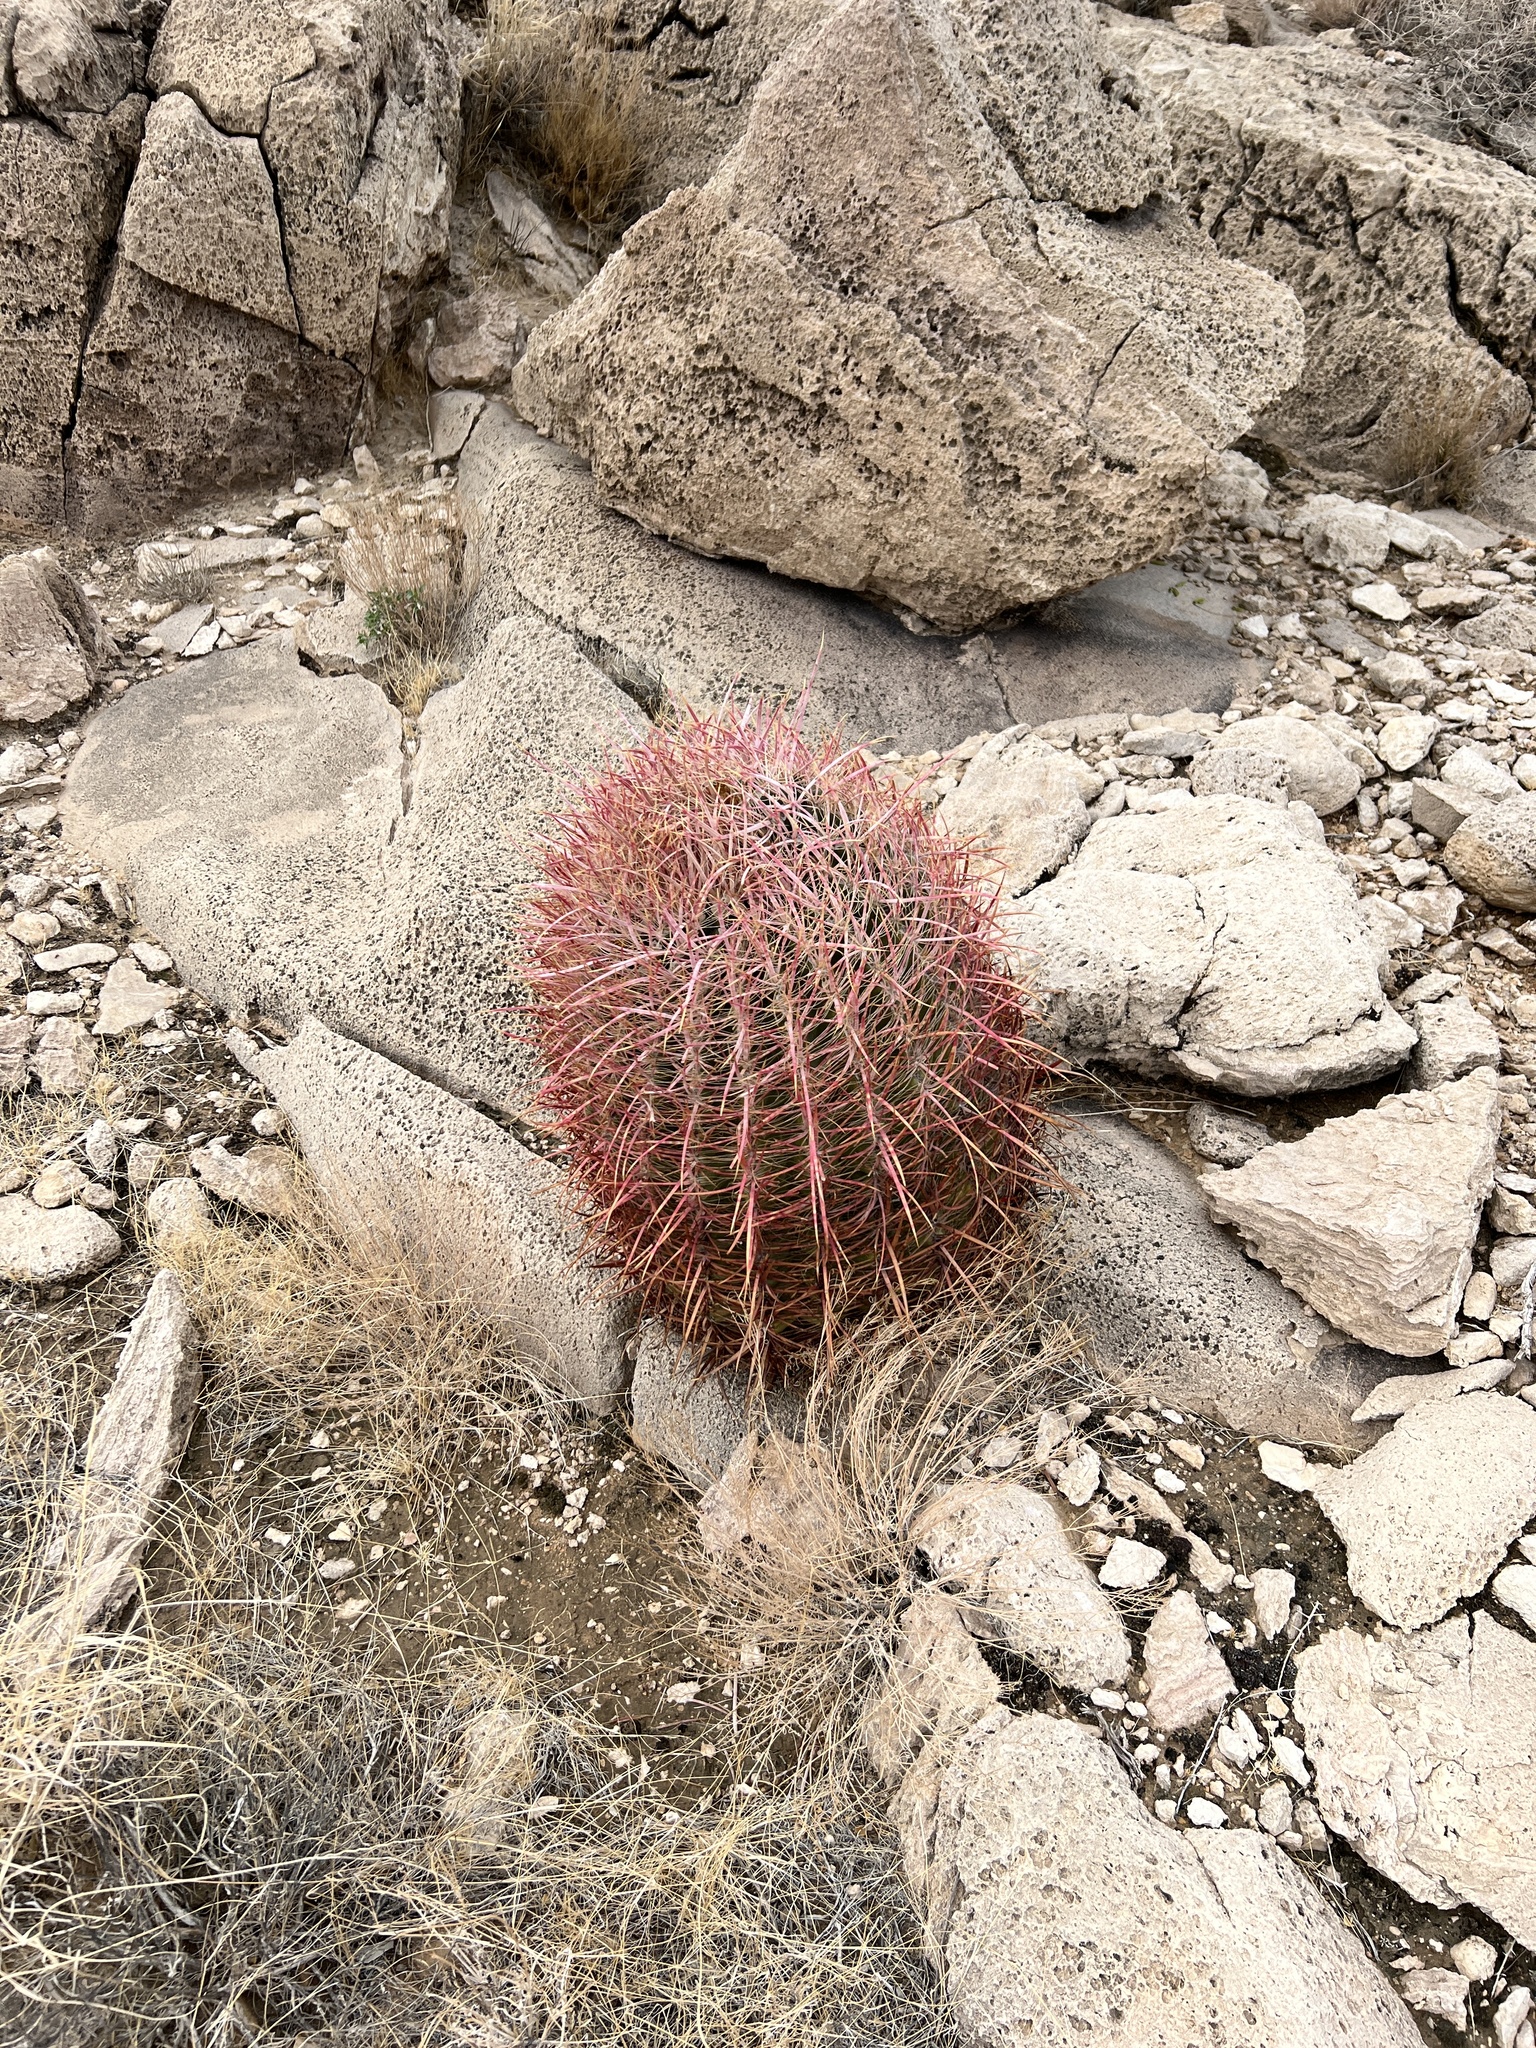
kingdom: Plantae
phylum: Tracheophyta
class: Magnoliopsida
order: Caryophyllales
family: Cactaceae
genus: Ferocactus
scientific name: Ferocactus cylindraceus
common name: California barrel cactus
